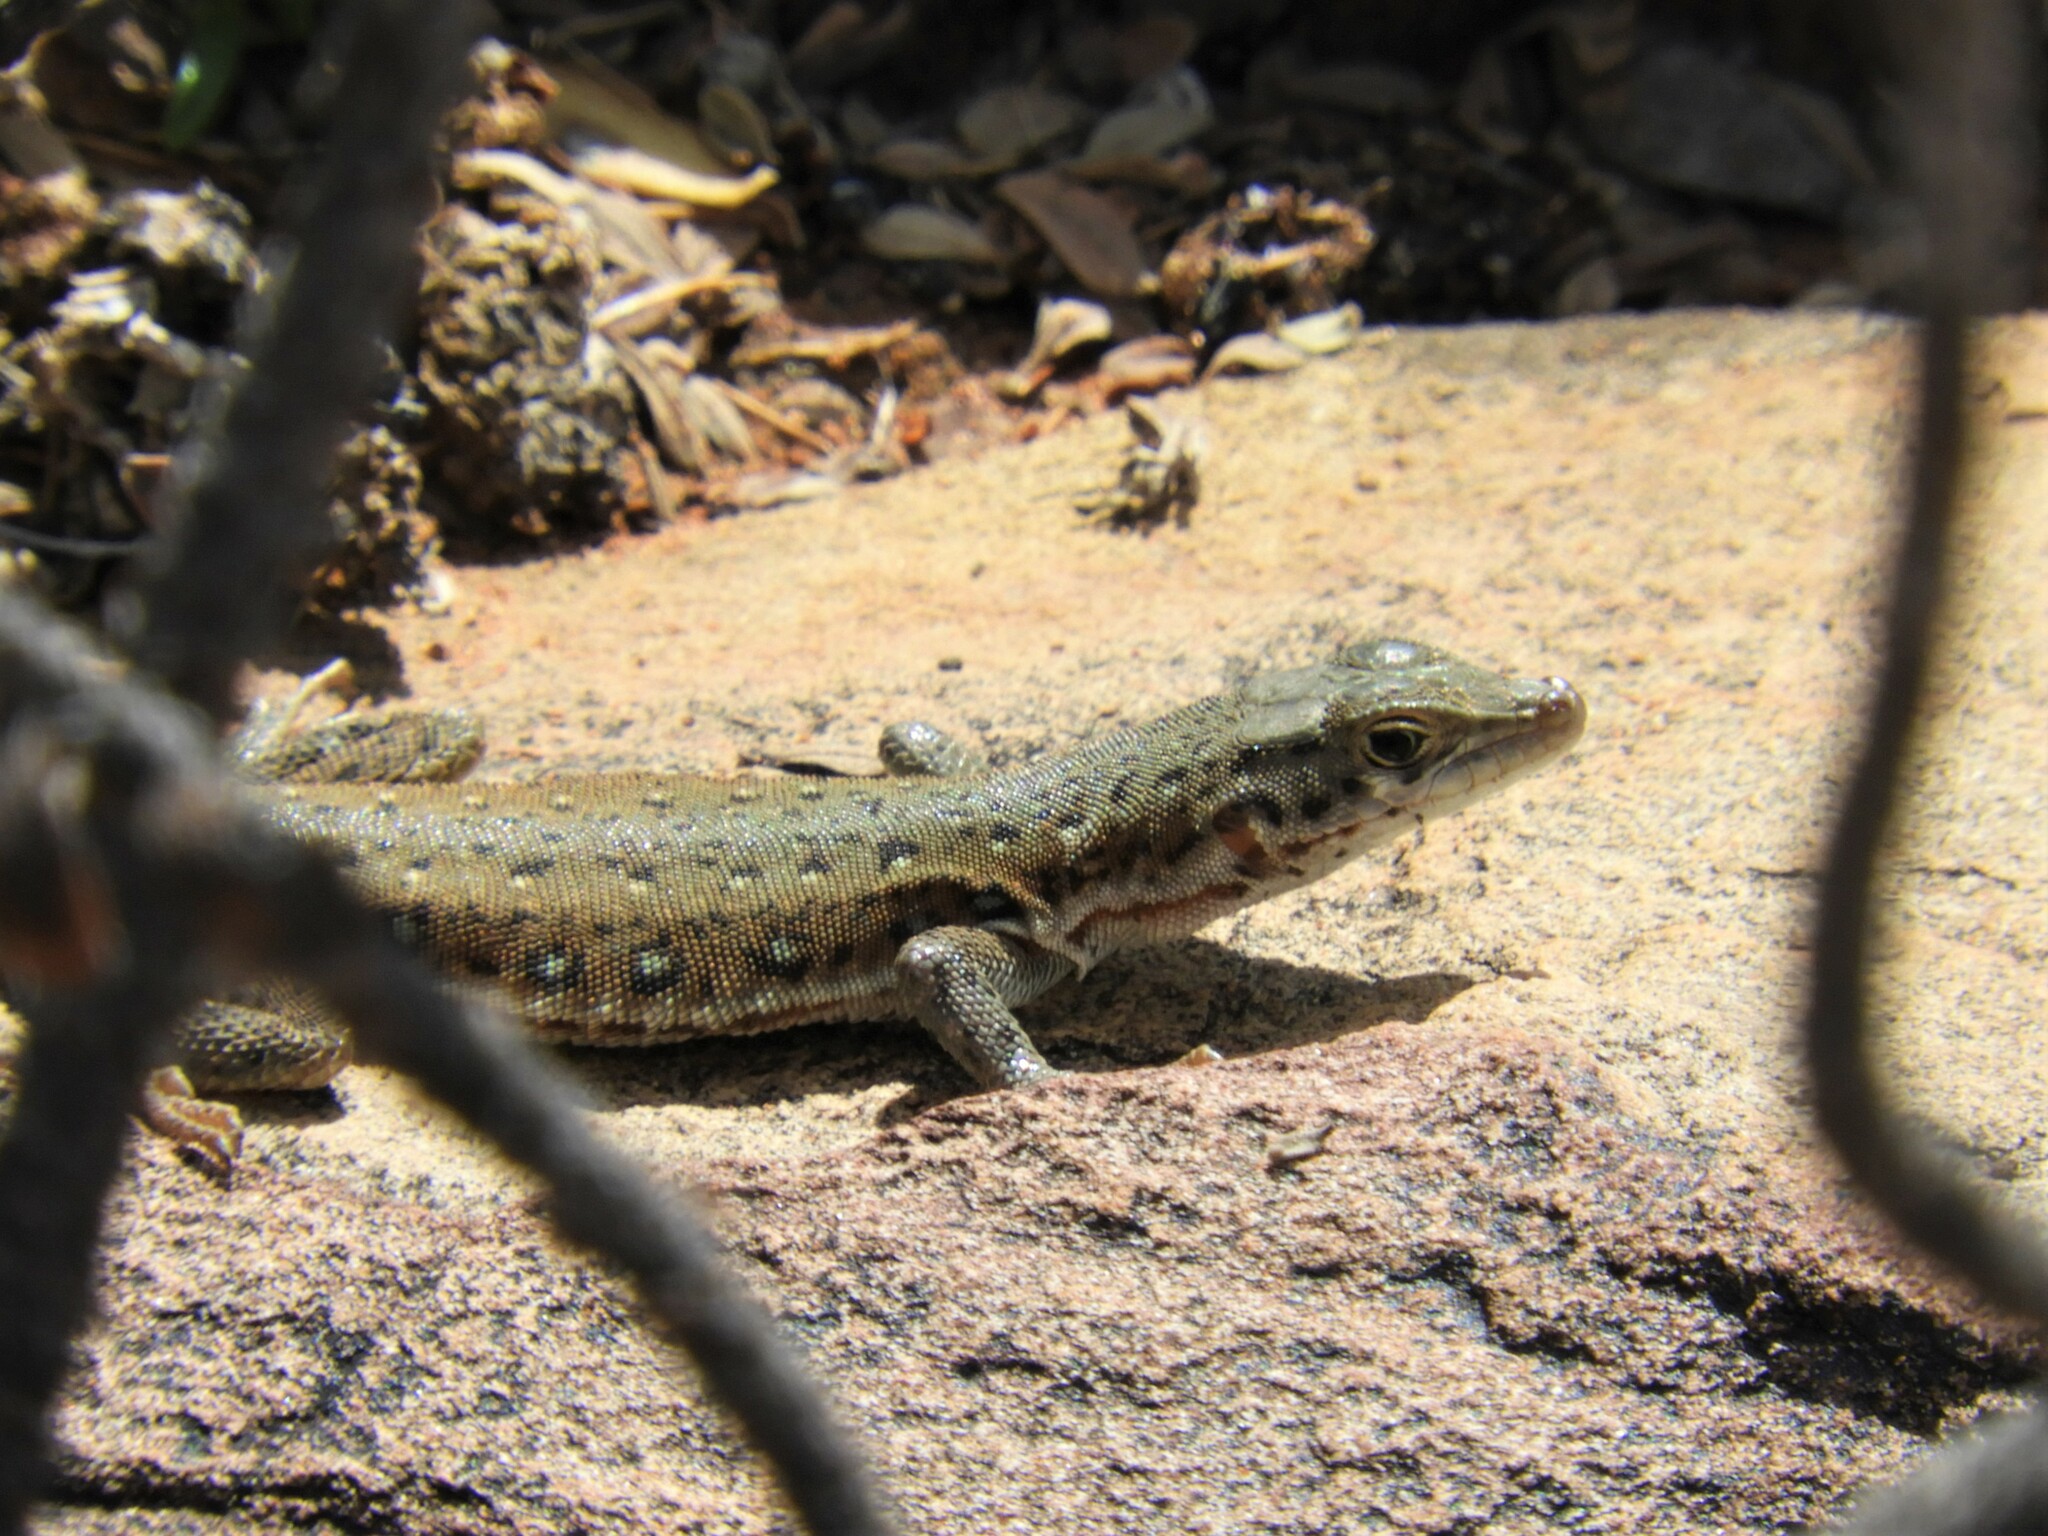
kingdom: Animalia
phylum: Chordata
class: Squamata
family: Lacertidae
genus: Pedioplanis
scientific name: Pedioplanis lineoocellata
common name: Spotted sand lizard
